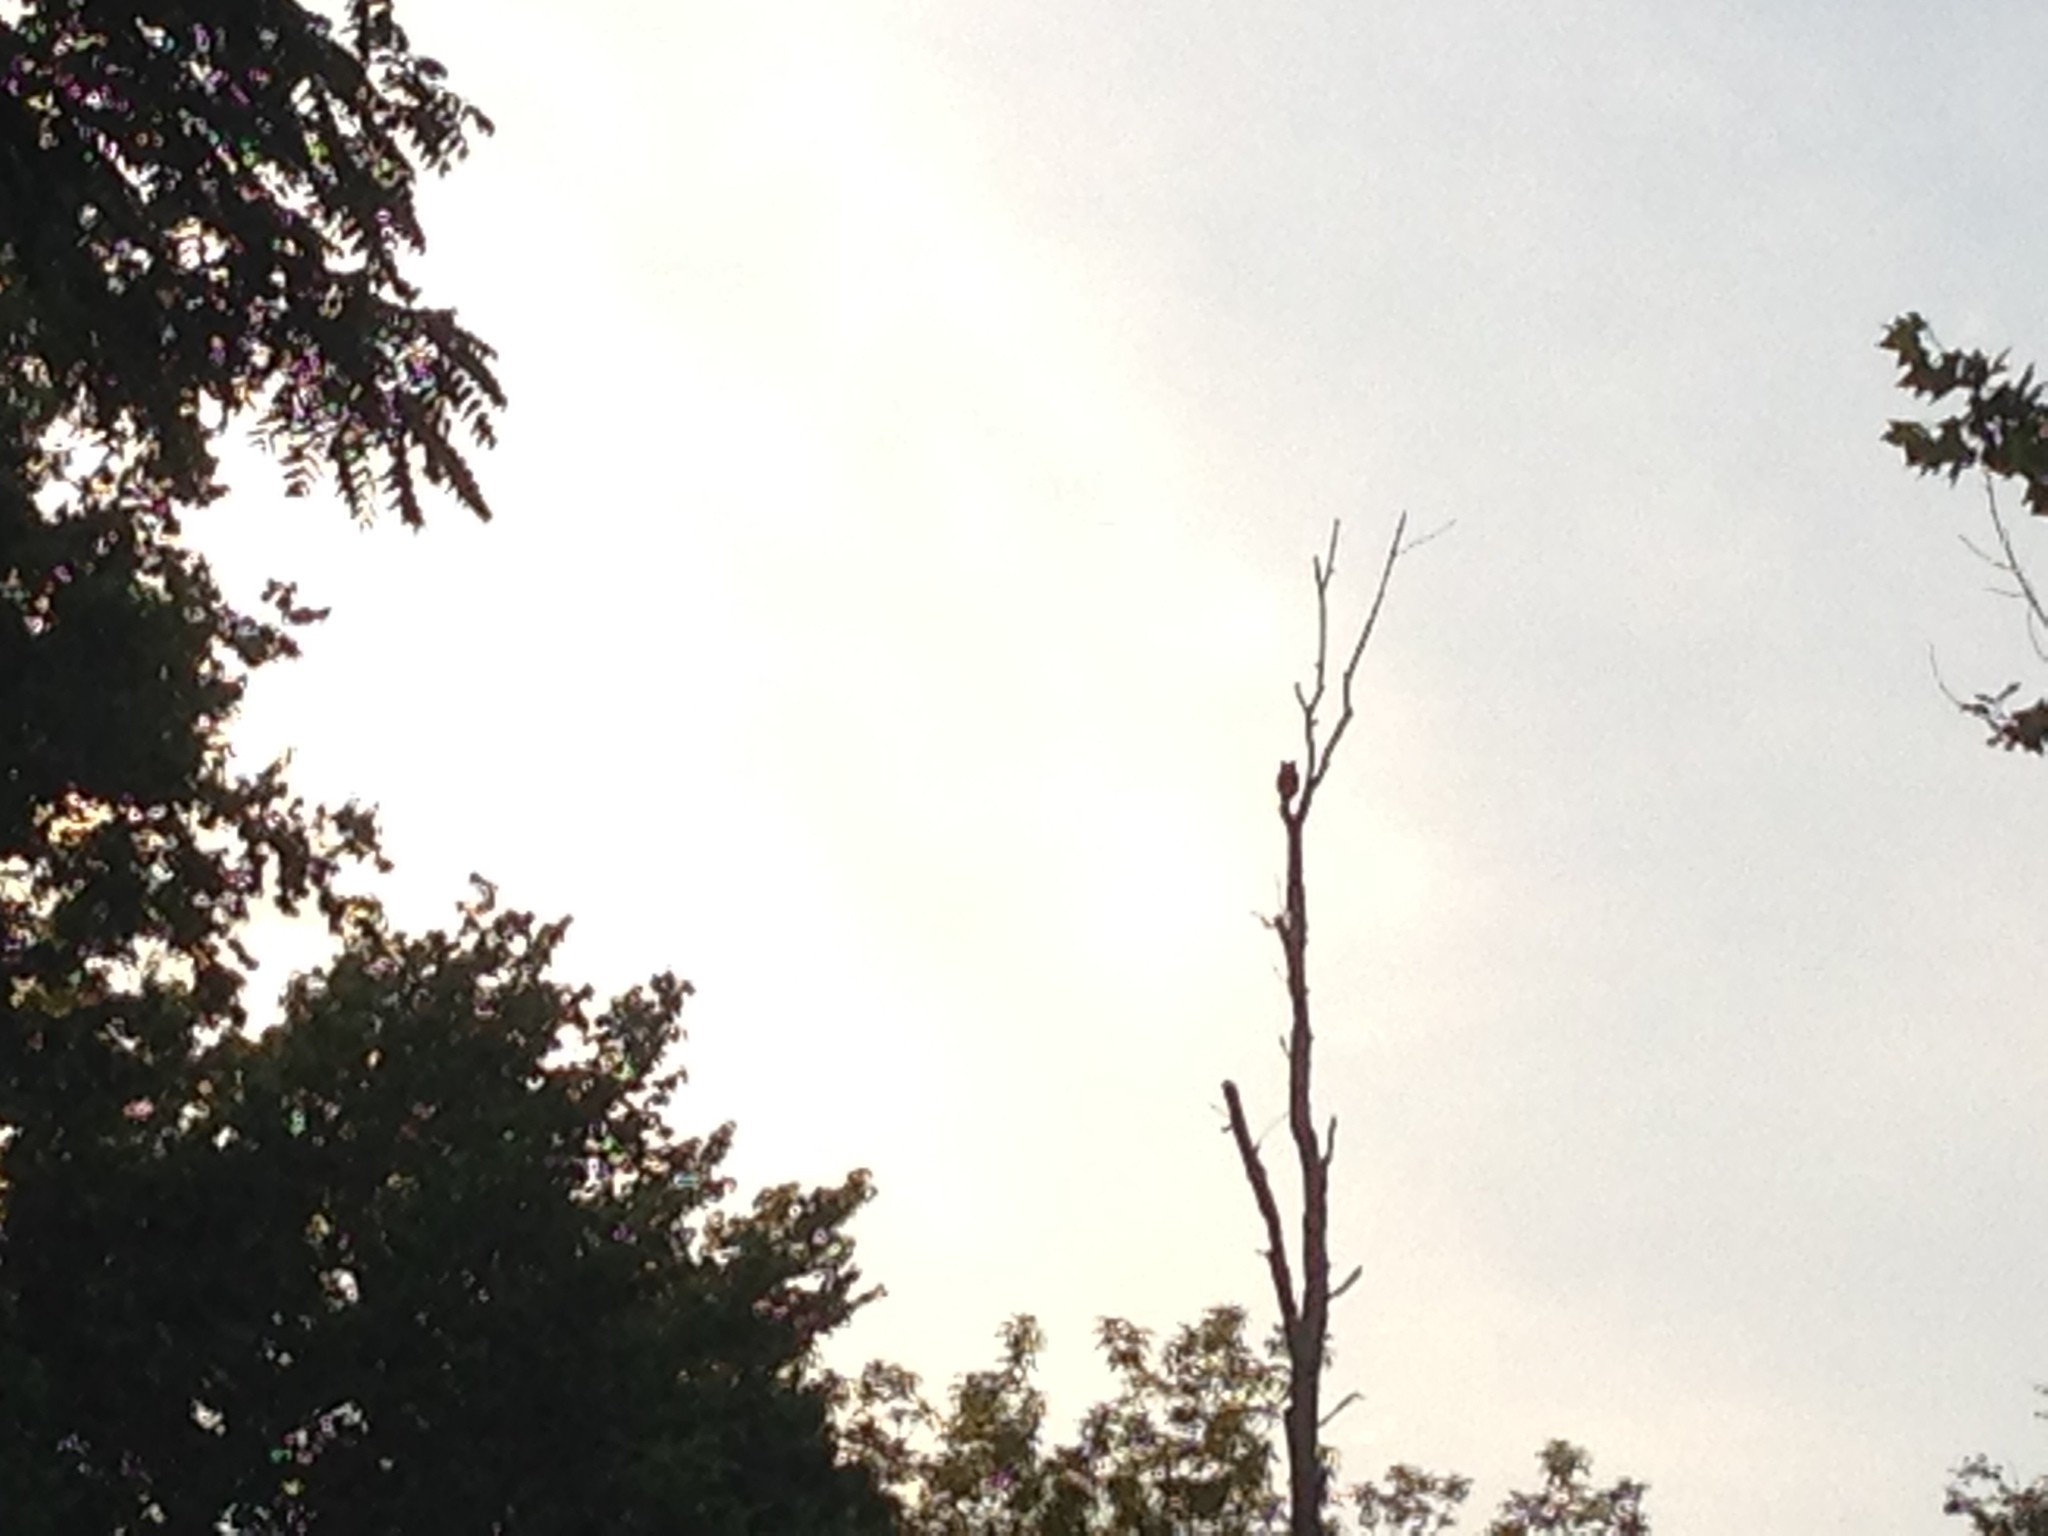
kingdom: Animalia
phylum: Chordata
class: Aves
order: Strigiformes
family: Strigidae
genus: Bubo
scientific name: Bubo virginianus
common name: Great horned owl
